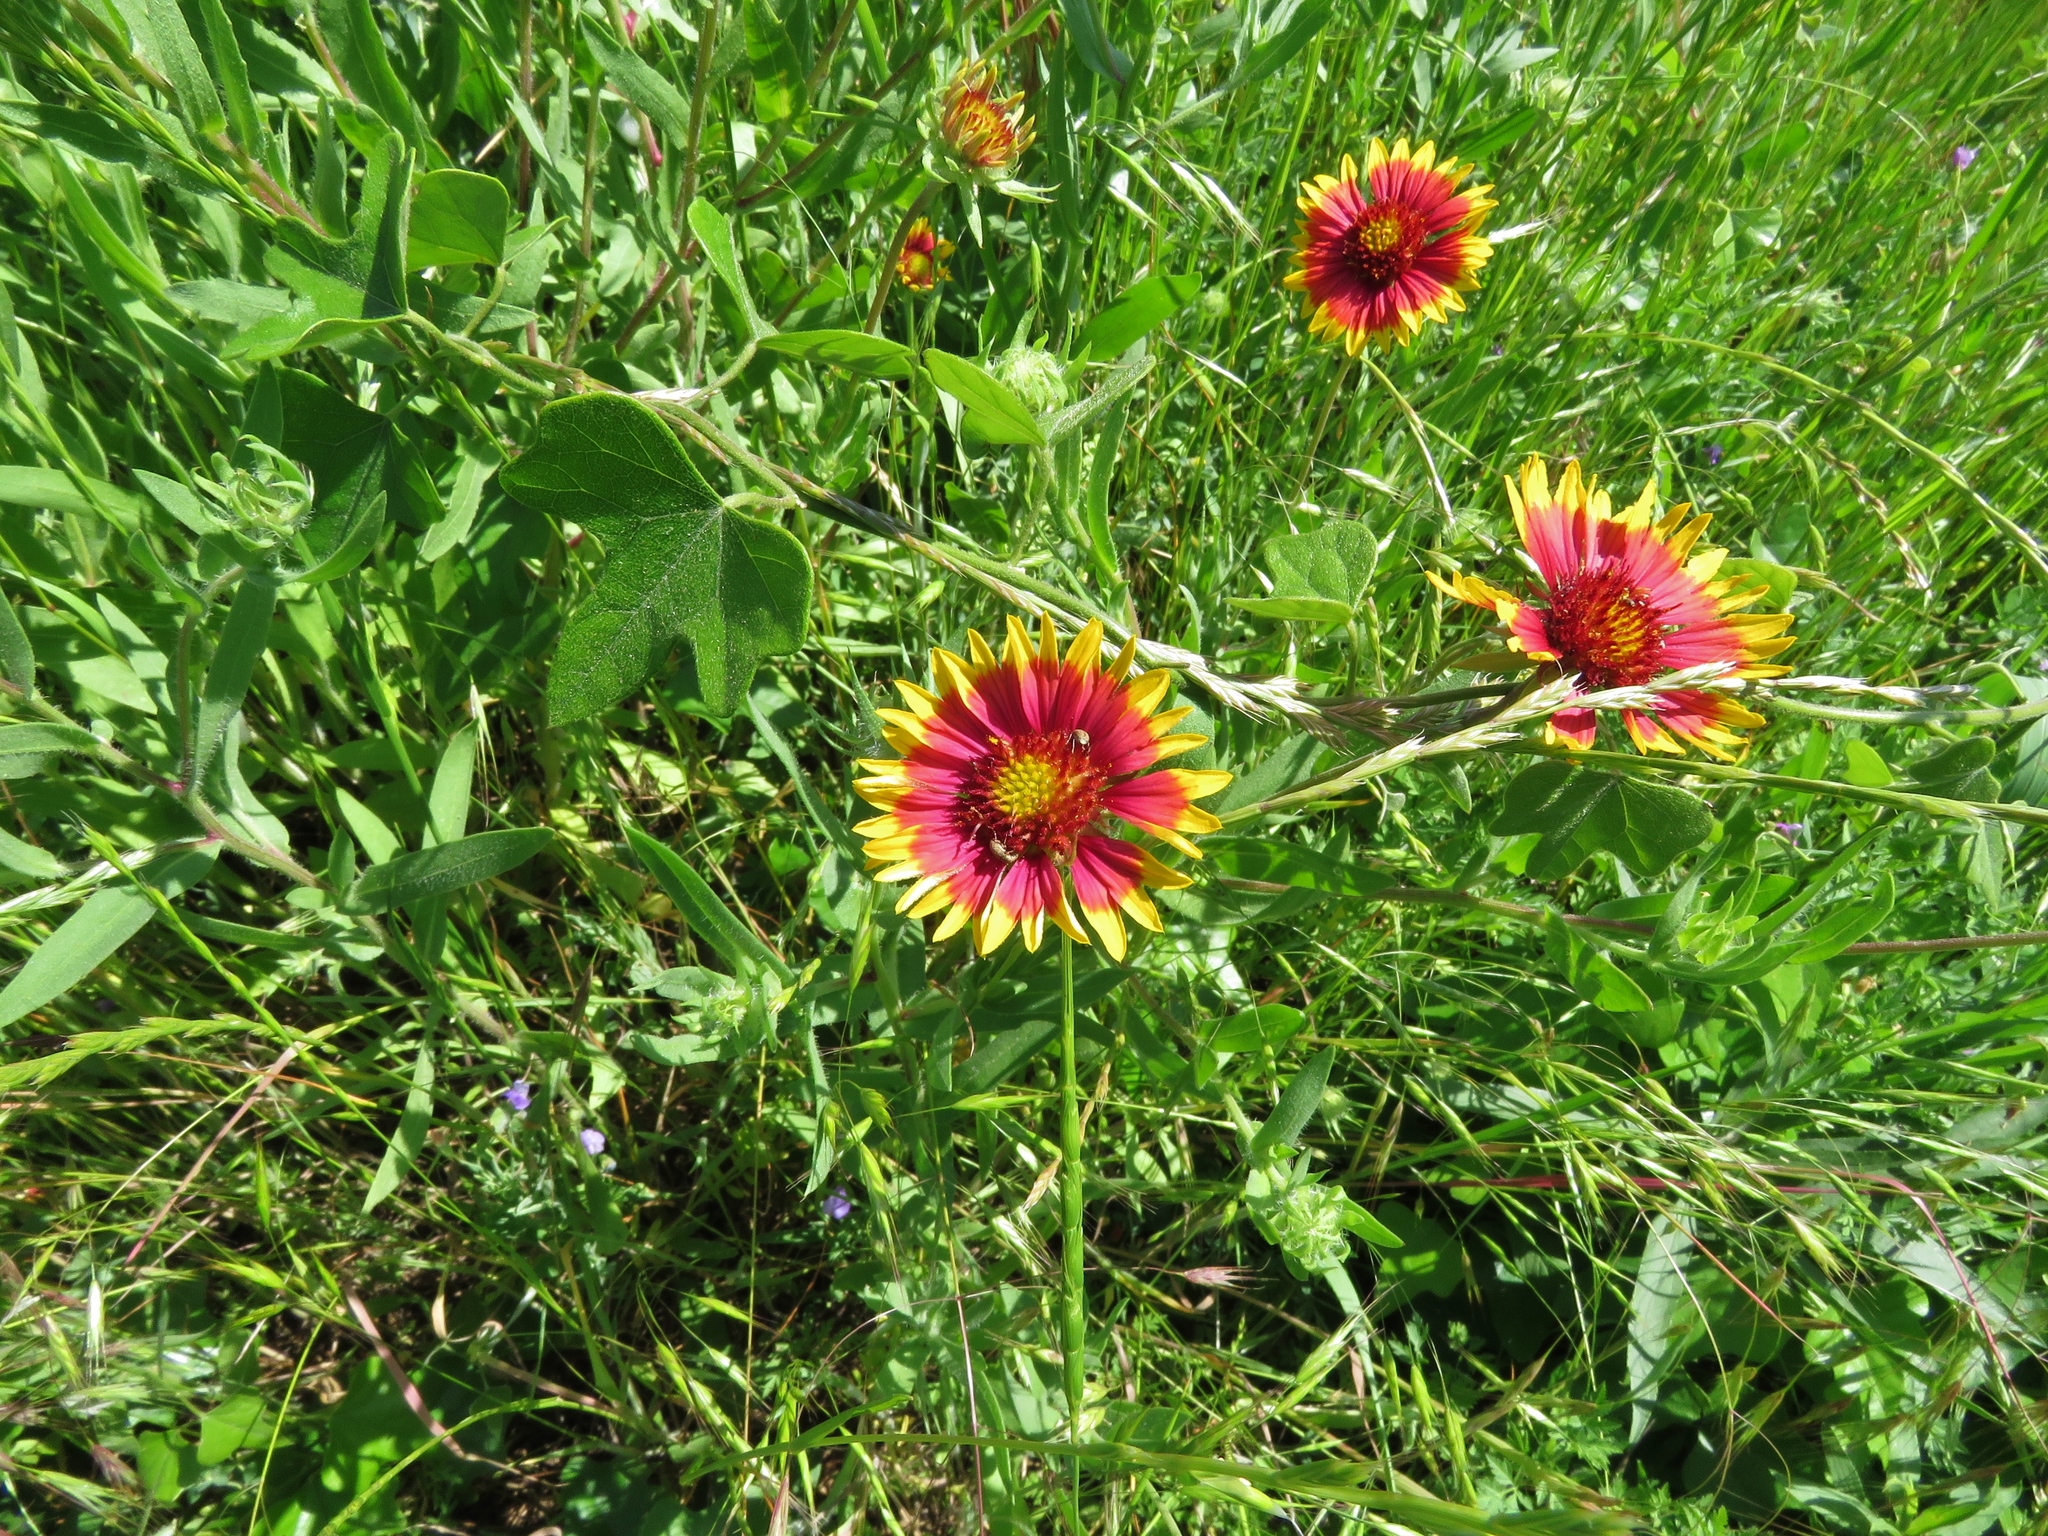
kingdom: Plantae
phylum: Tracheophyta
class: Magnoliopsida
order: Asterales
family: Asteraceae
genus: Gaillardia
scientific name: Gaillardia pulchella
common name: Firewheel
